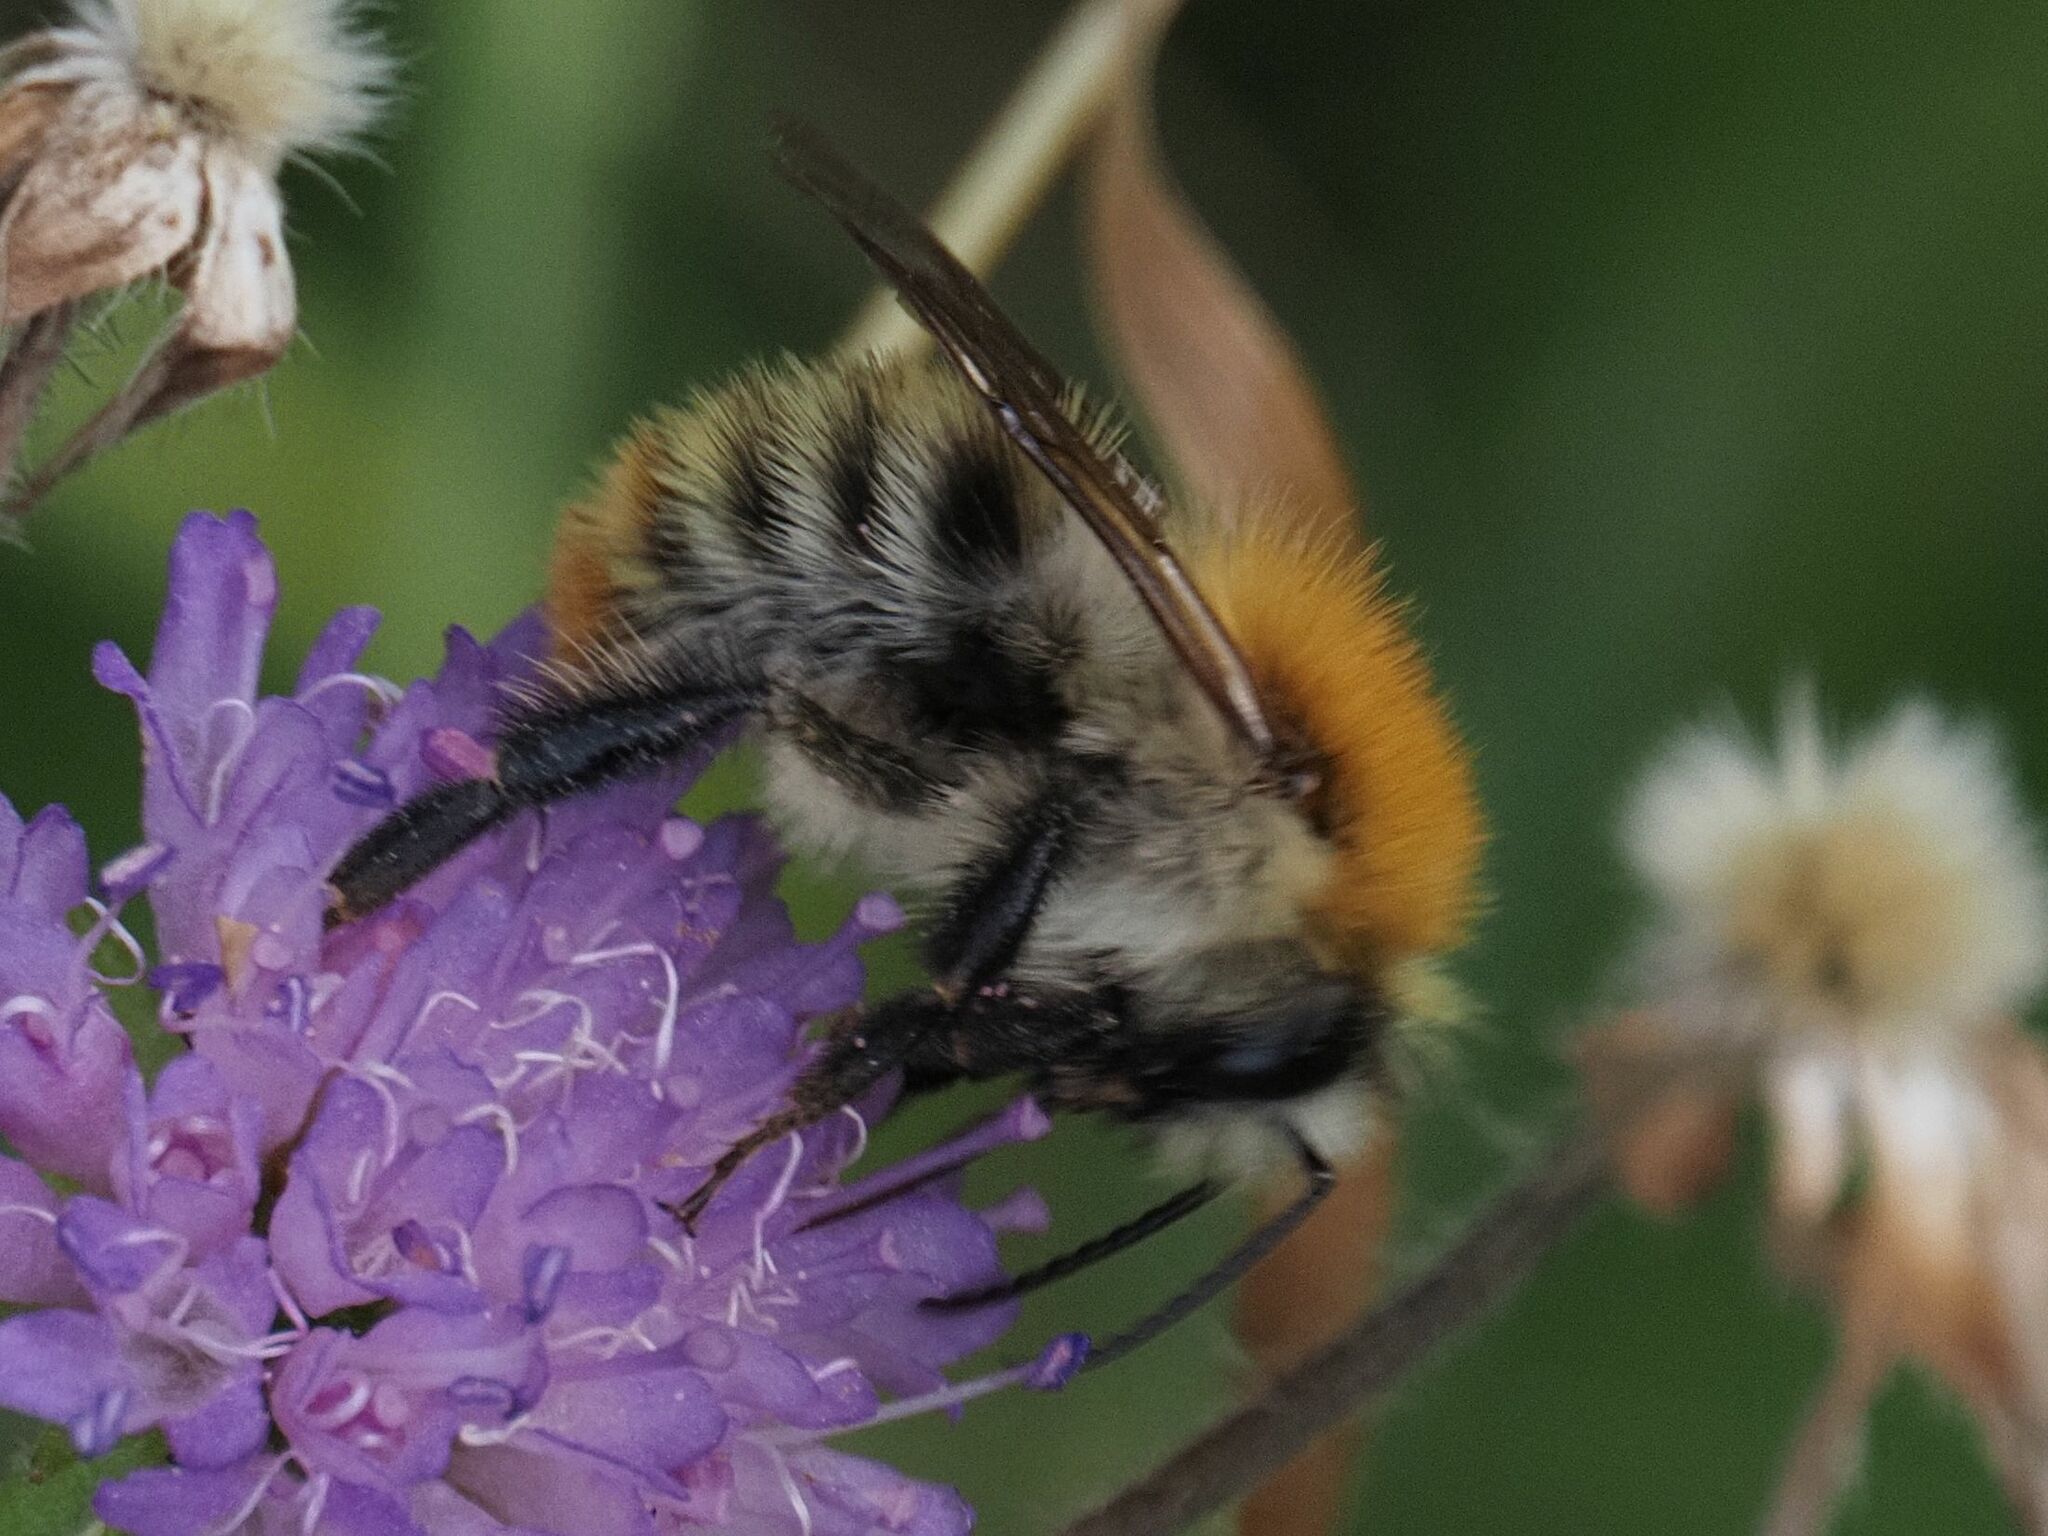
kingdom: Animalia
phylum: Arthropoda
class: Insecta
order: Hymenoptera
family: Apidae
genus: Bombus
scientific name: Bombus pascuorum
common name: Common carder bee
